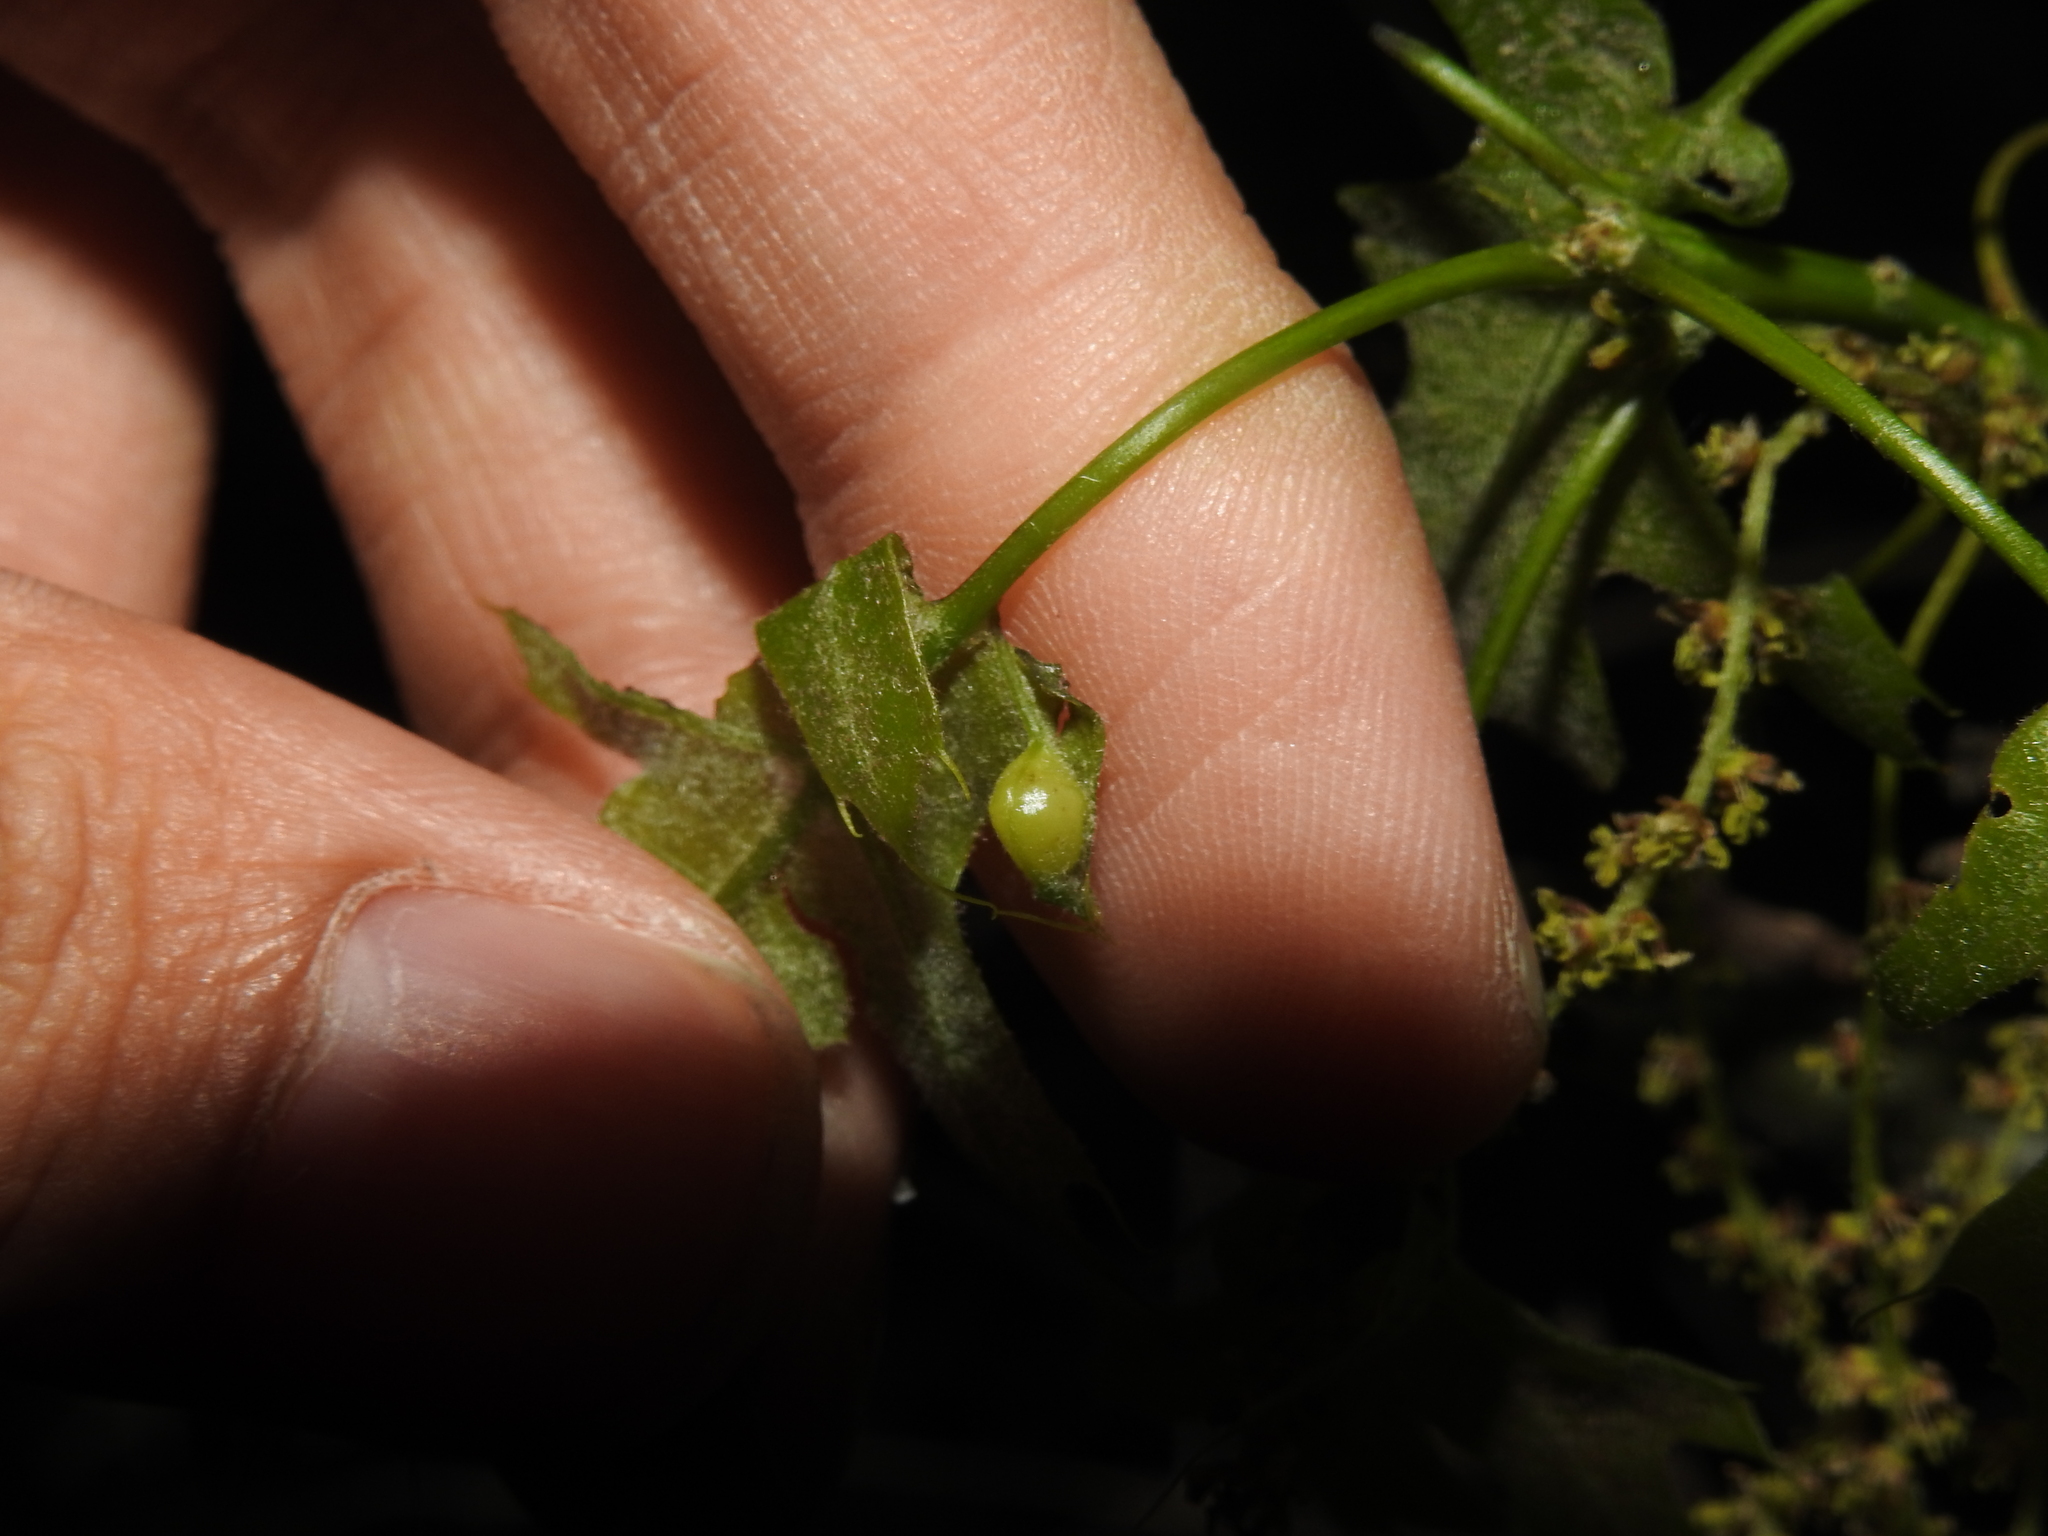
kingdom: Animalia
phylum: Arthropoda
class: Insecta
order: Diptera
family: Cecidomyiidae
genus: Macrodiplosis
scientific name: Macrodiplosis majalis
